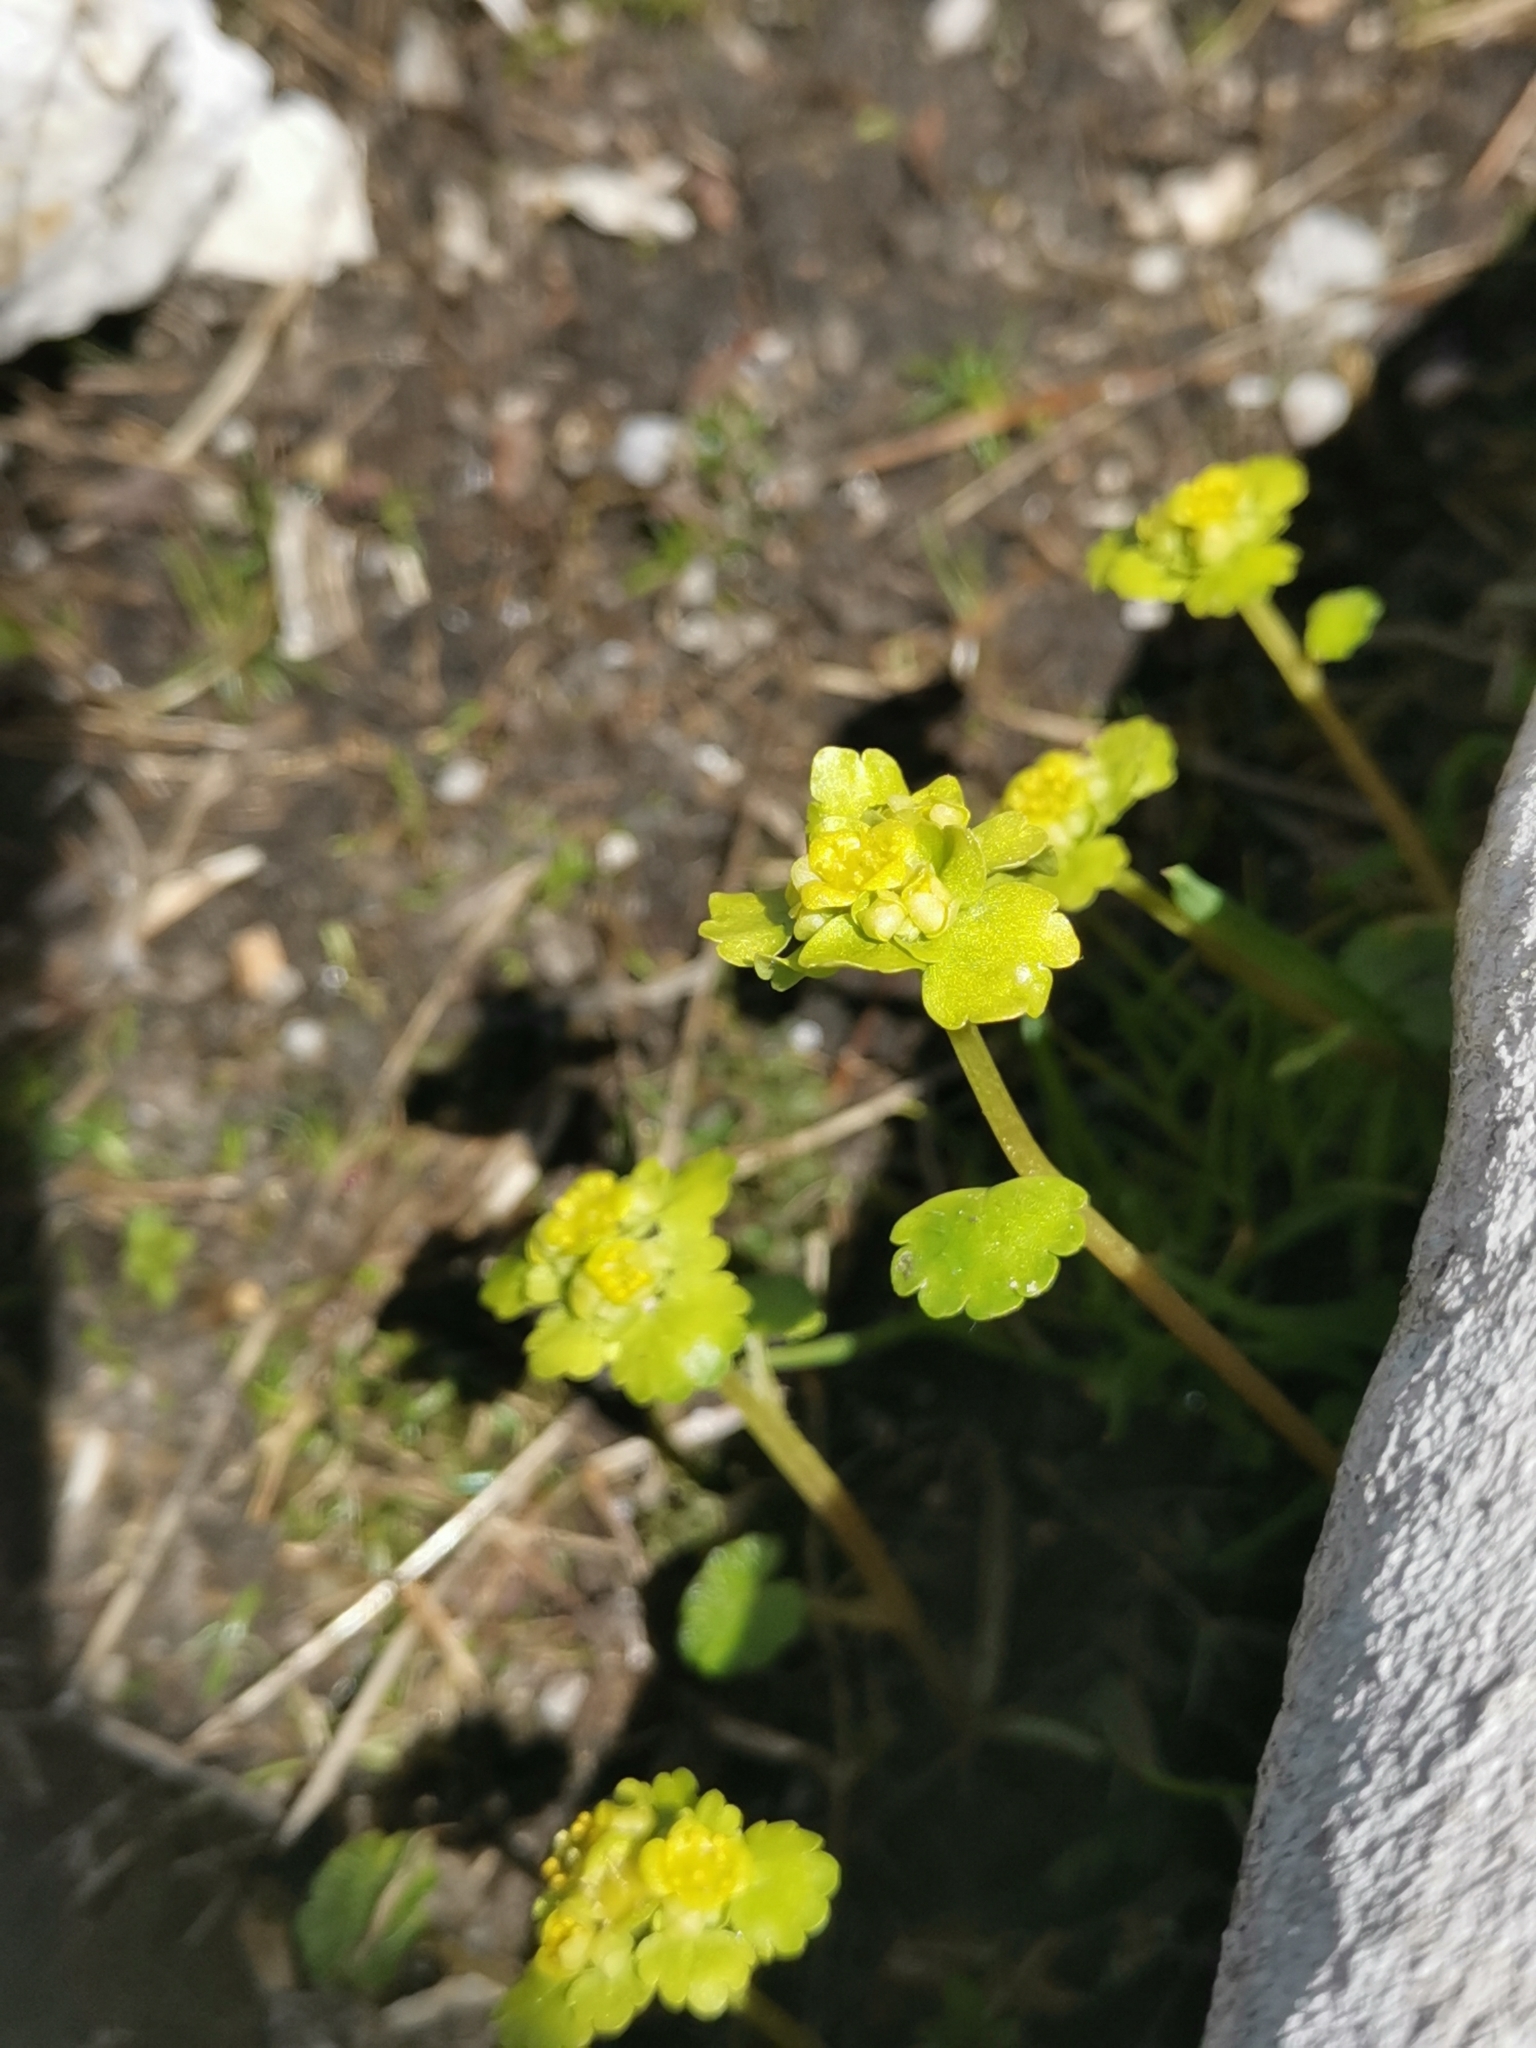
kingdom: Plantae
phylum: Tracheophyta
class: Magnoliopsida
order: Saxifragales
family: Saxifragaceae
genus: Chrysosplenium
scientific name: Chrysosplenium alternifolium
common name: Alternate-leaved golden-saxifrage
